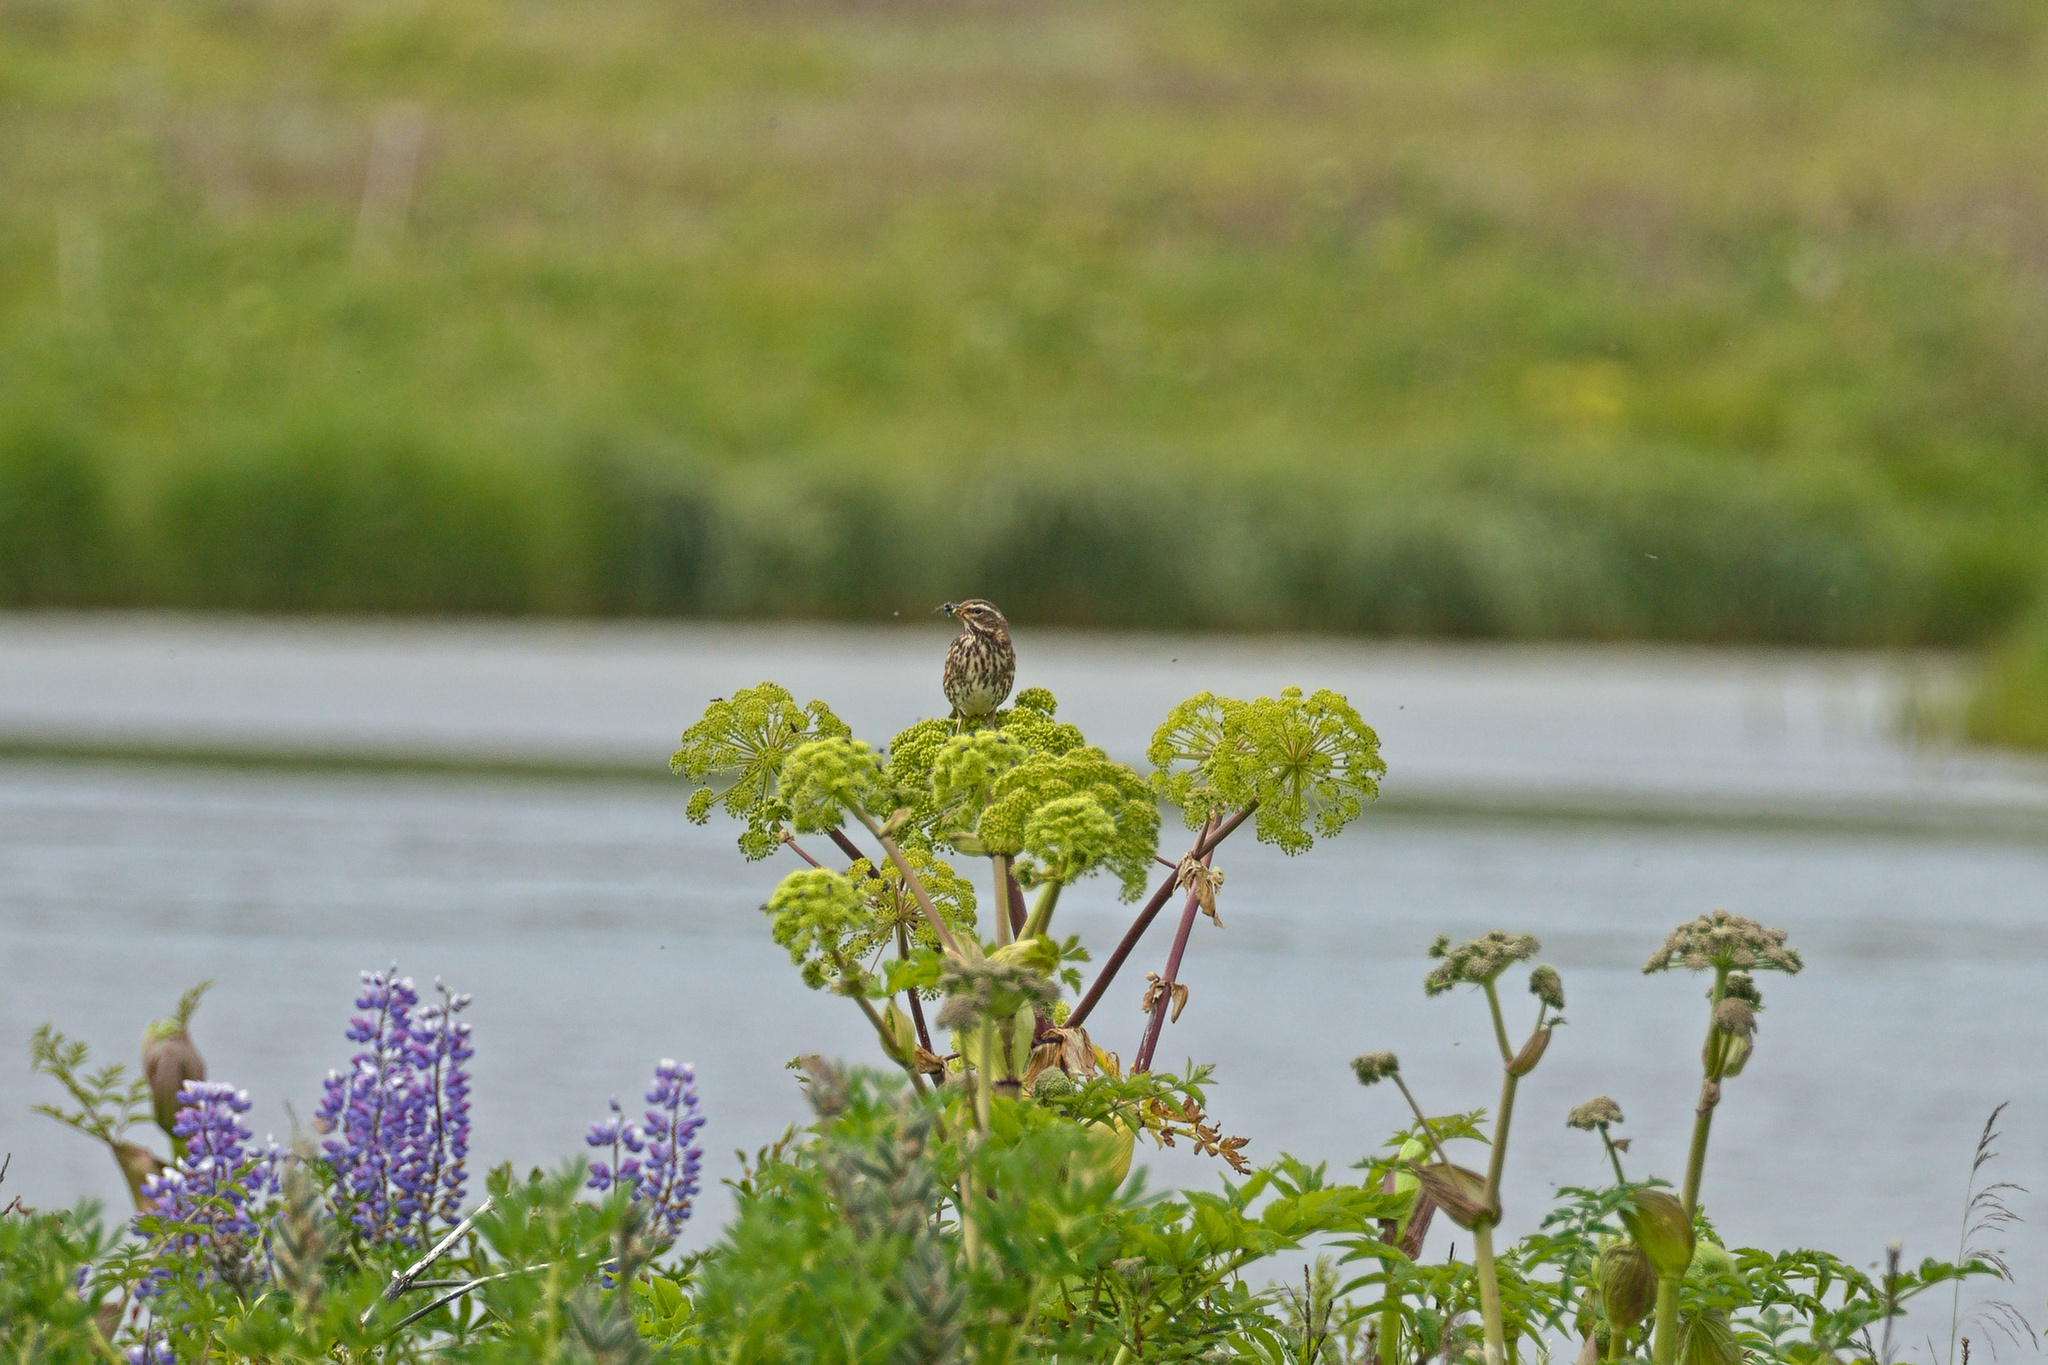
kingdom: Animalia
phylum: Chordata
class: Aves
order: Passeriformes
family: Motacillidae
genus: Anthus
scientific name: Anthus pratensis
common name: Meadow pipit
